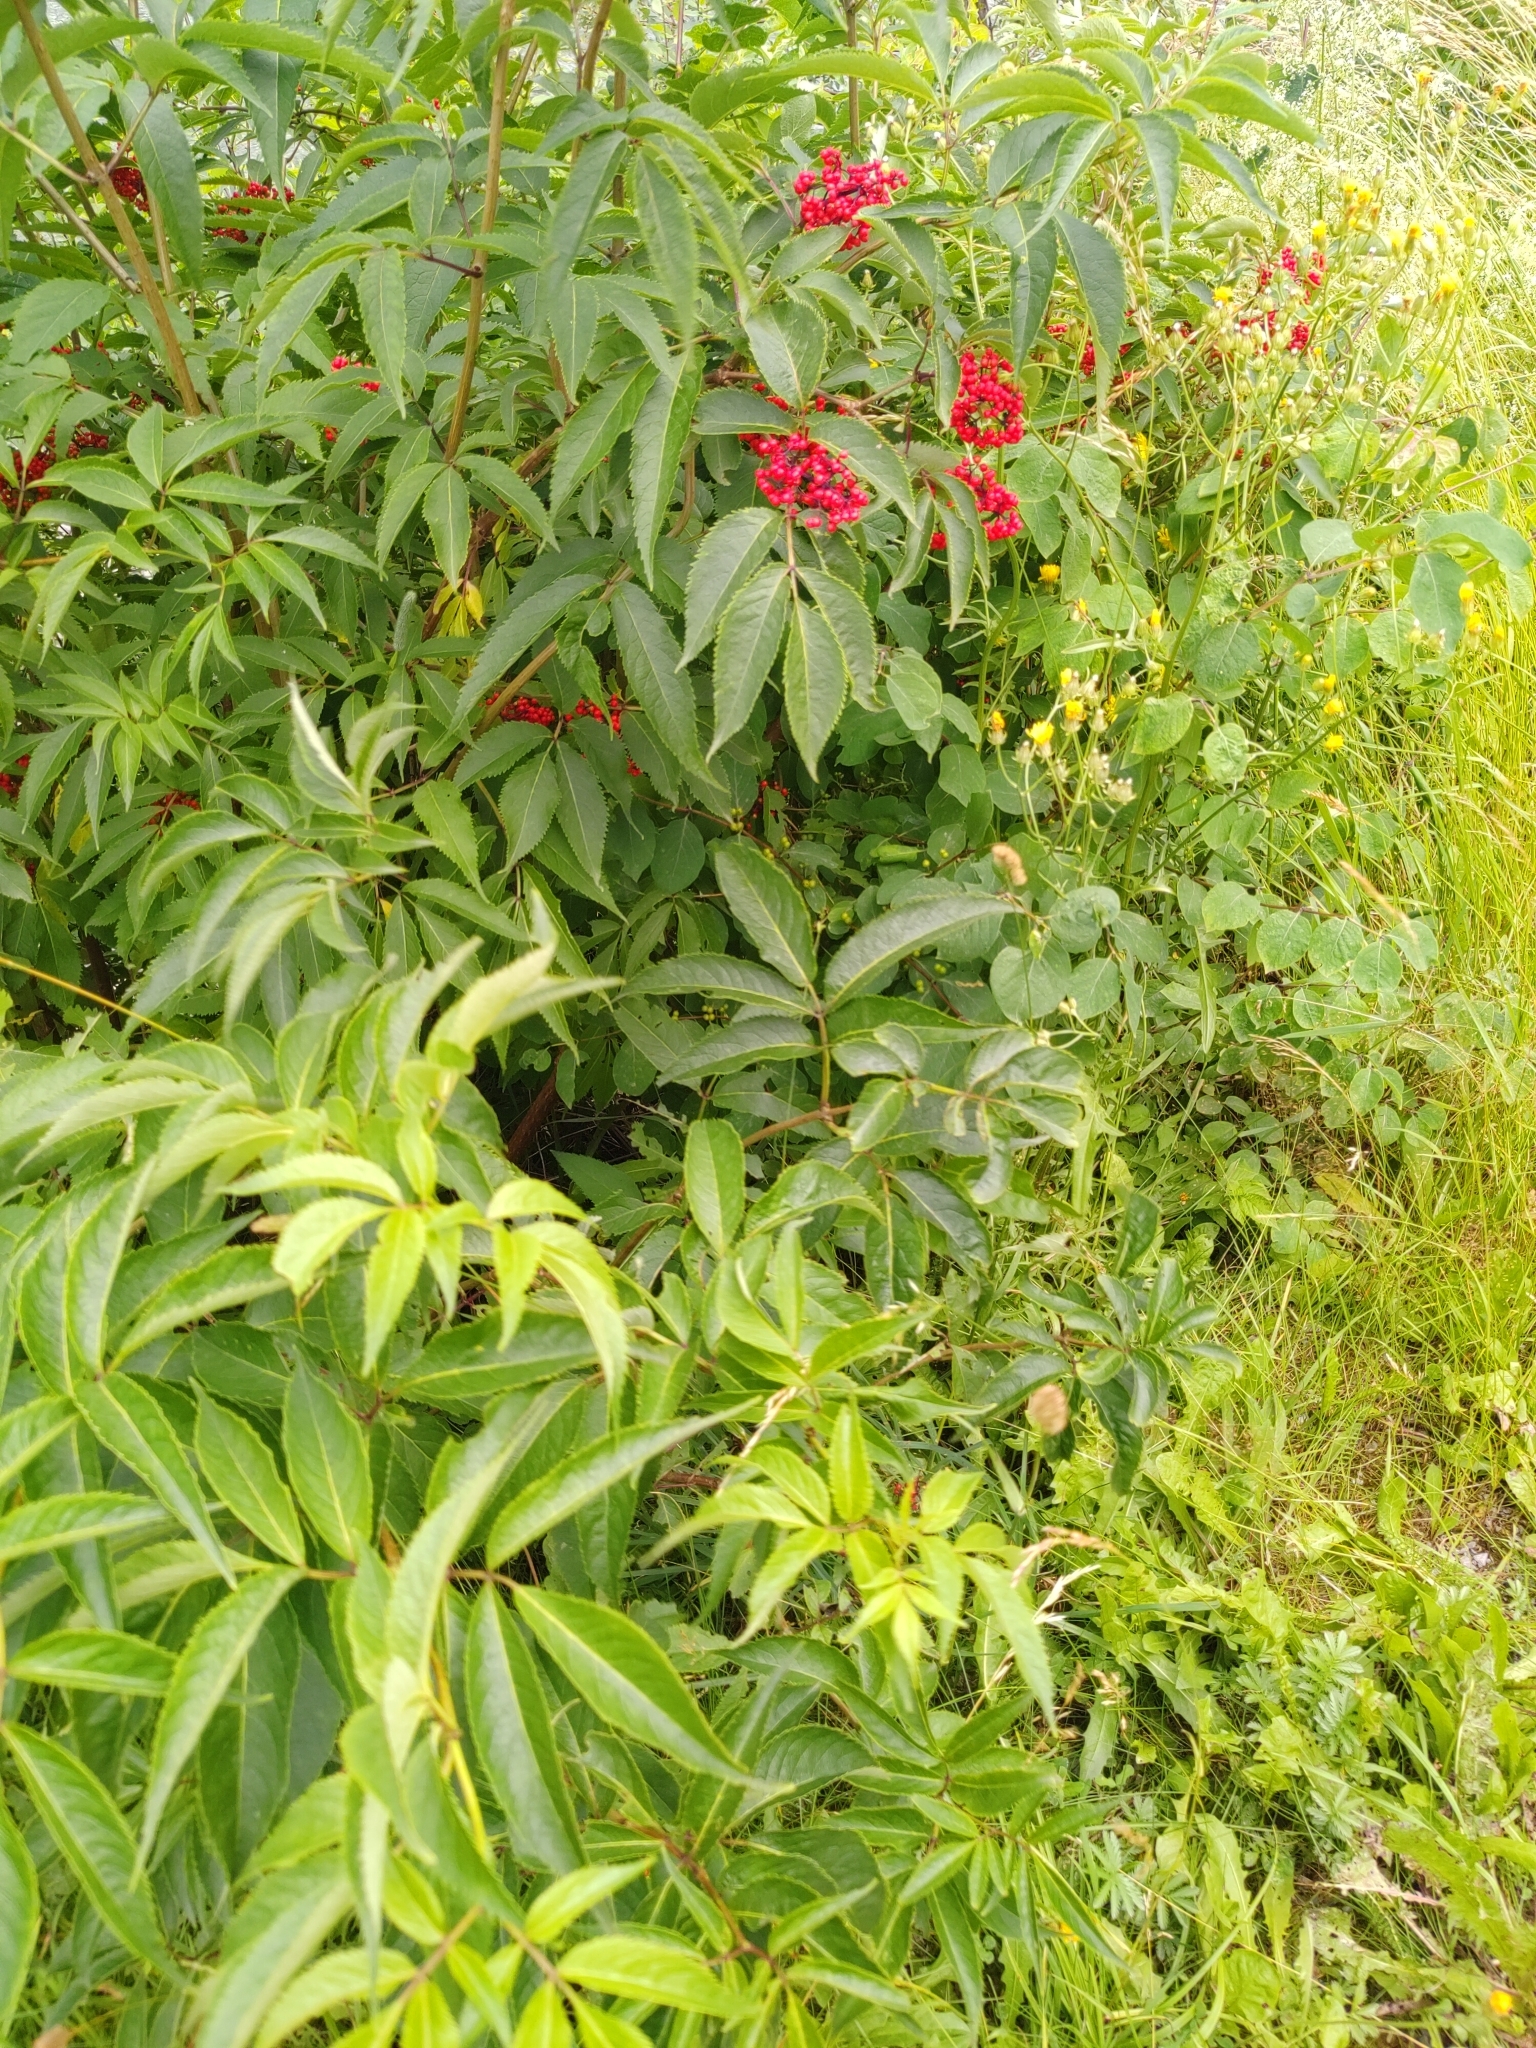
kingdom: Plantae
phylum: Tracheophyta
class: Magnoliopsida
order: Dipsacales
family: Viburnaceae
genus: Sambucus
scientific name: Sambucus racemosa
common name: Red-berried elder
